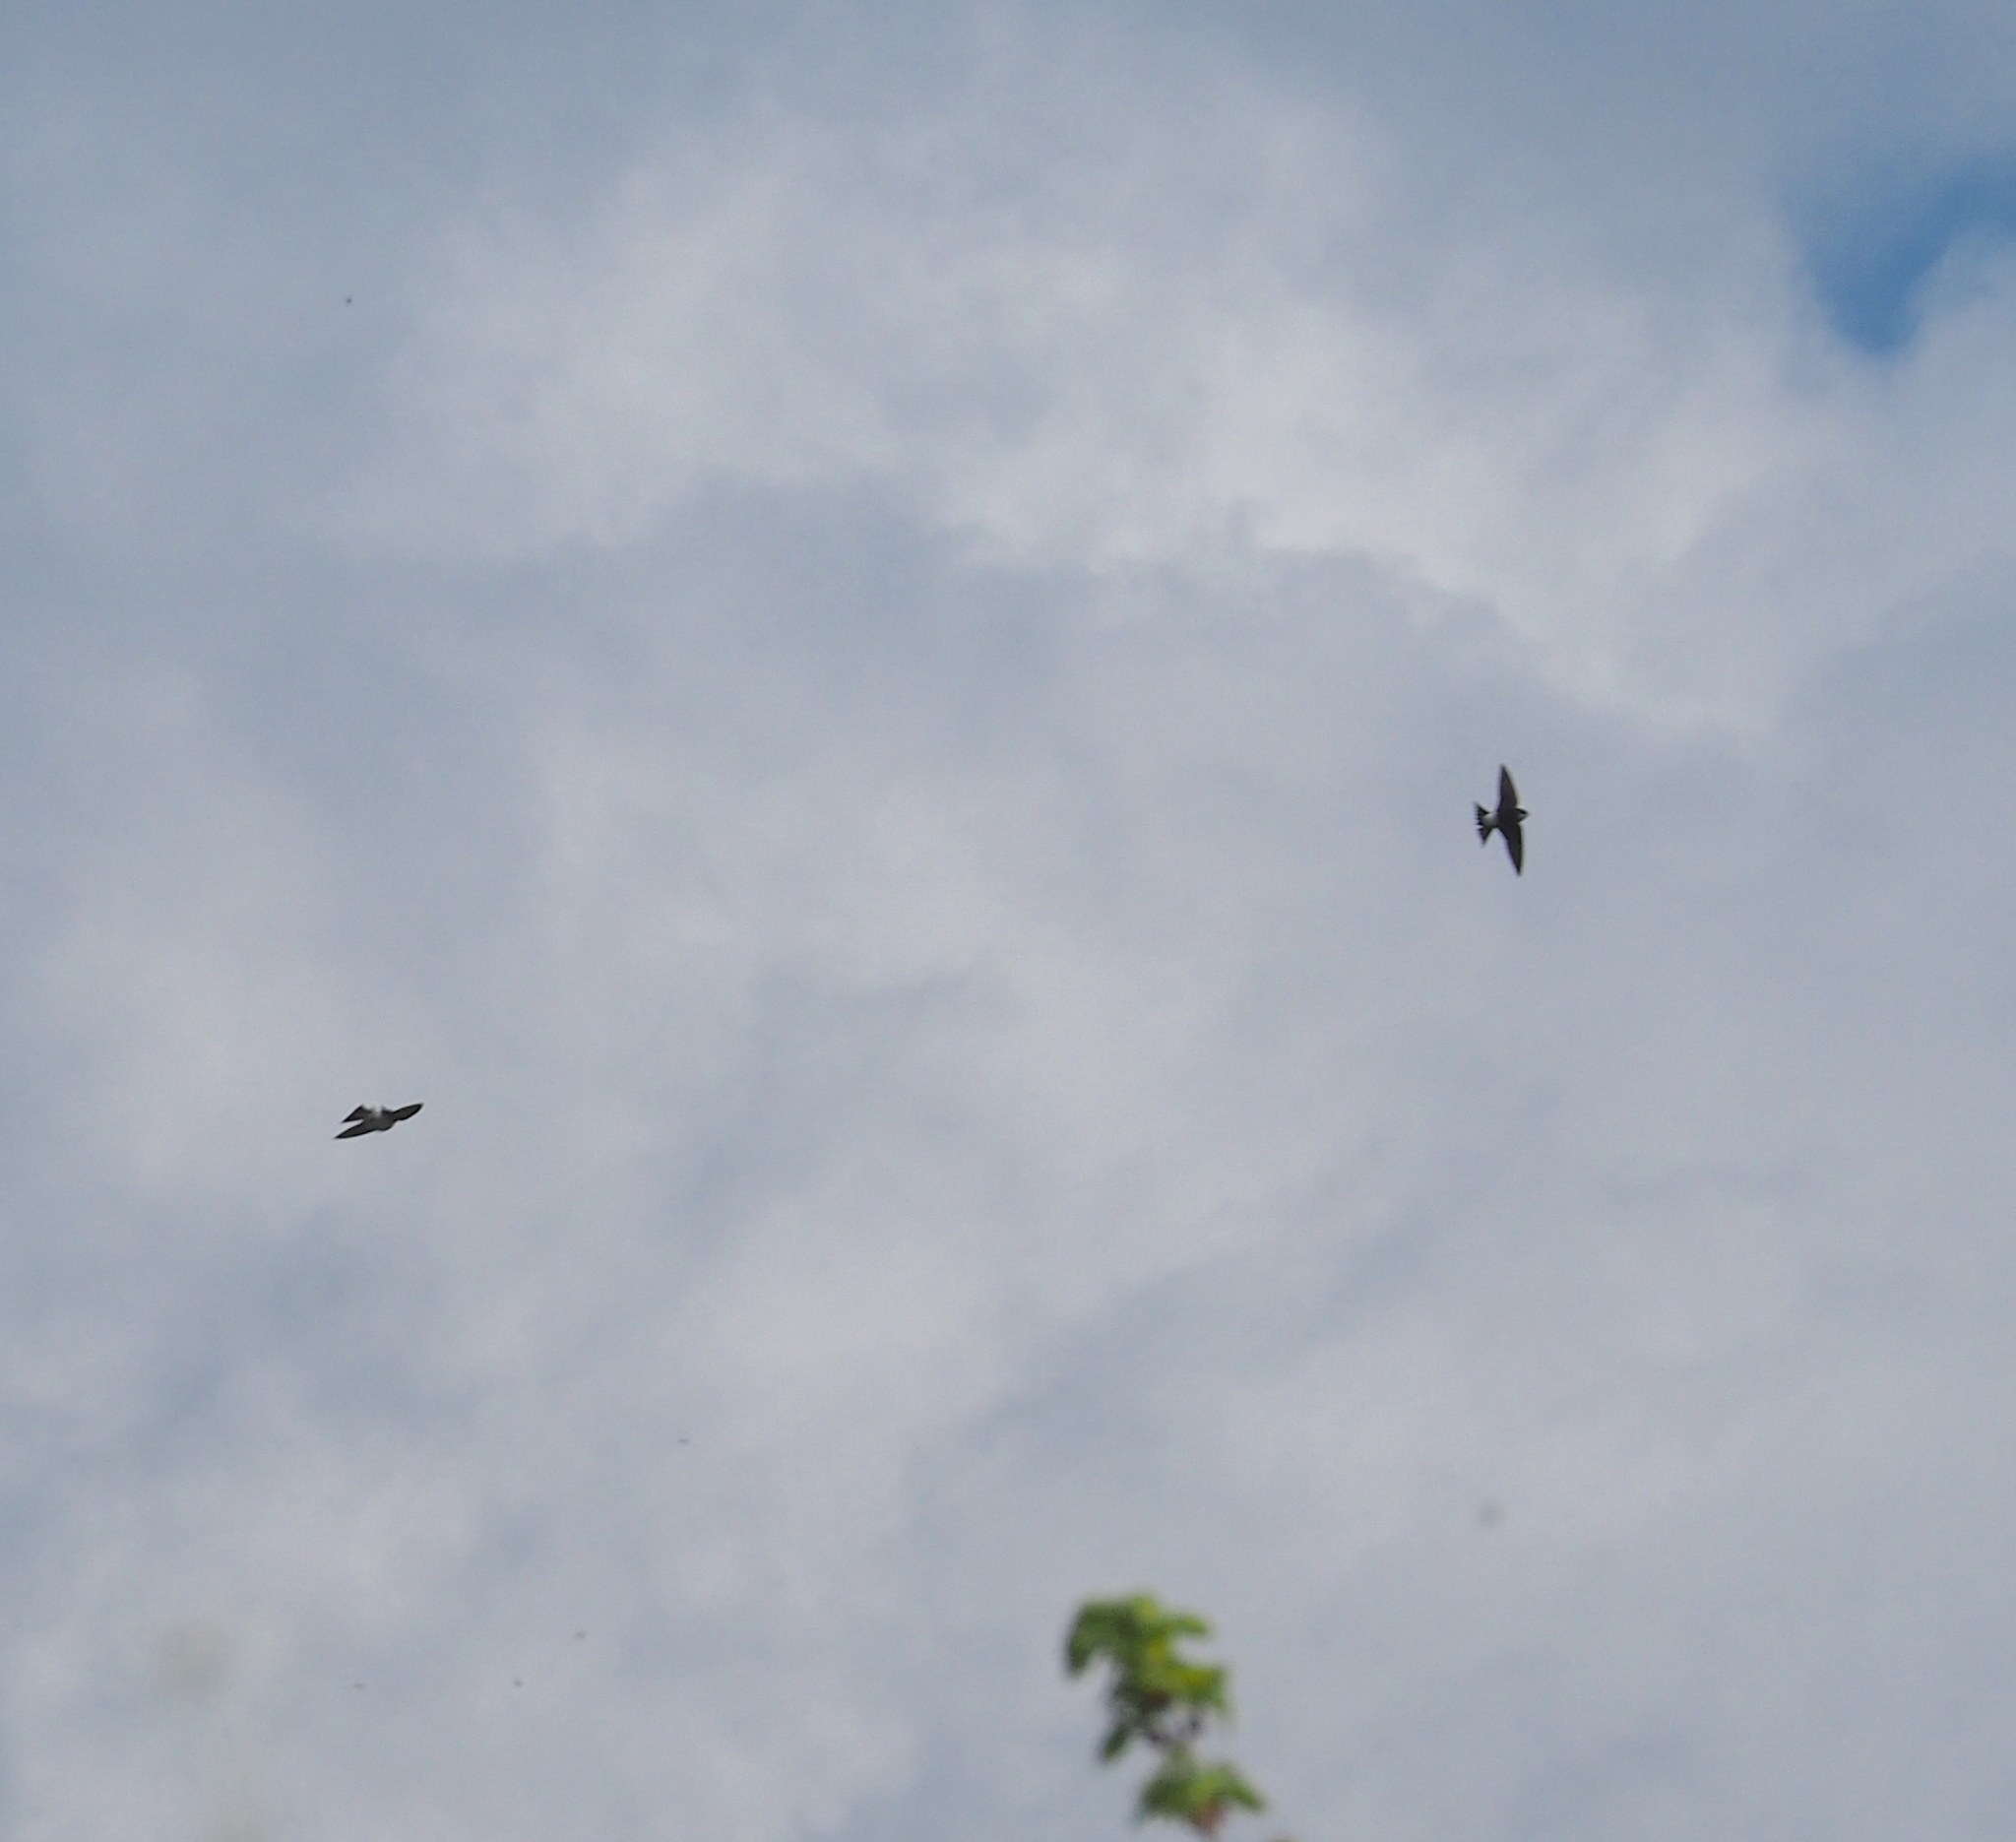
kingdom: Animalia
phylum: Chordata
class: Aves
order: Passeriformes
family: Hirundinidae
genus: Delichon
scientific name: Delichon urbicum
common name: Common house martin
